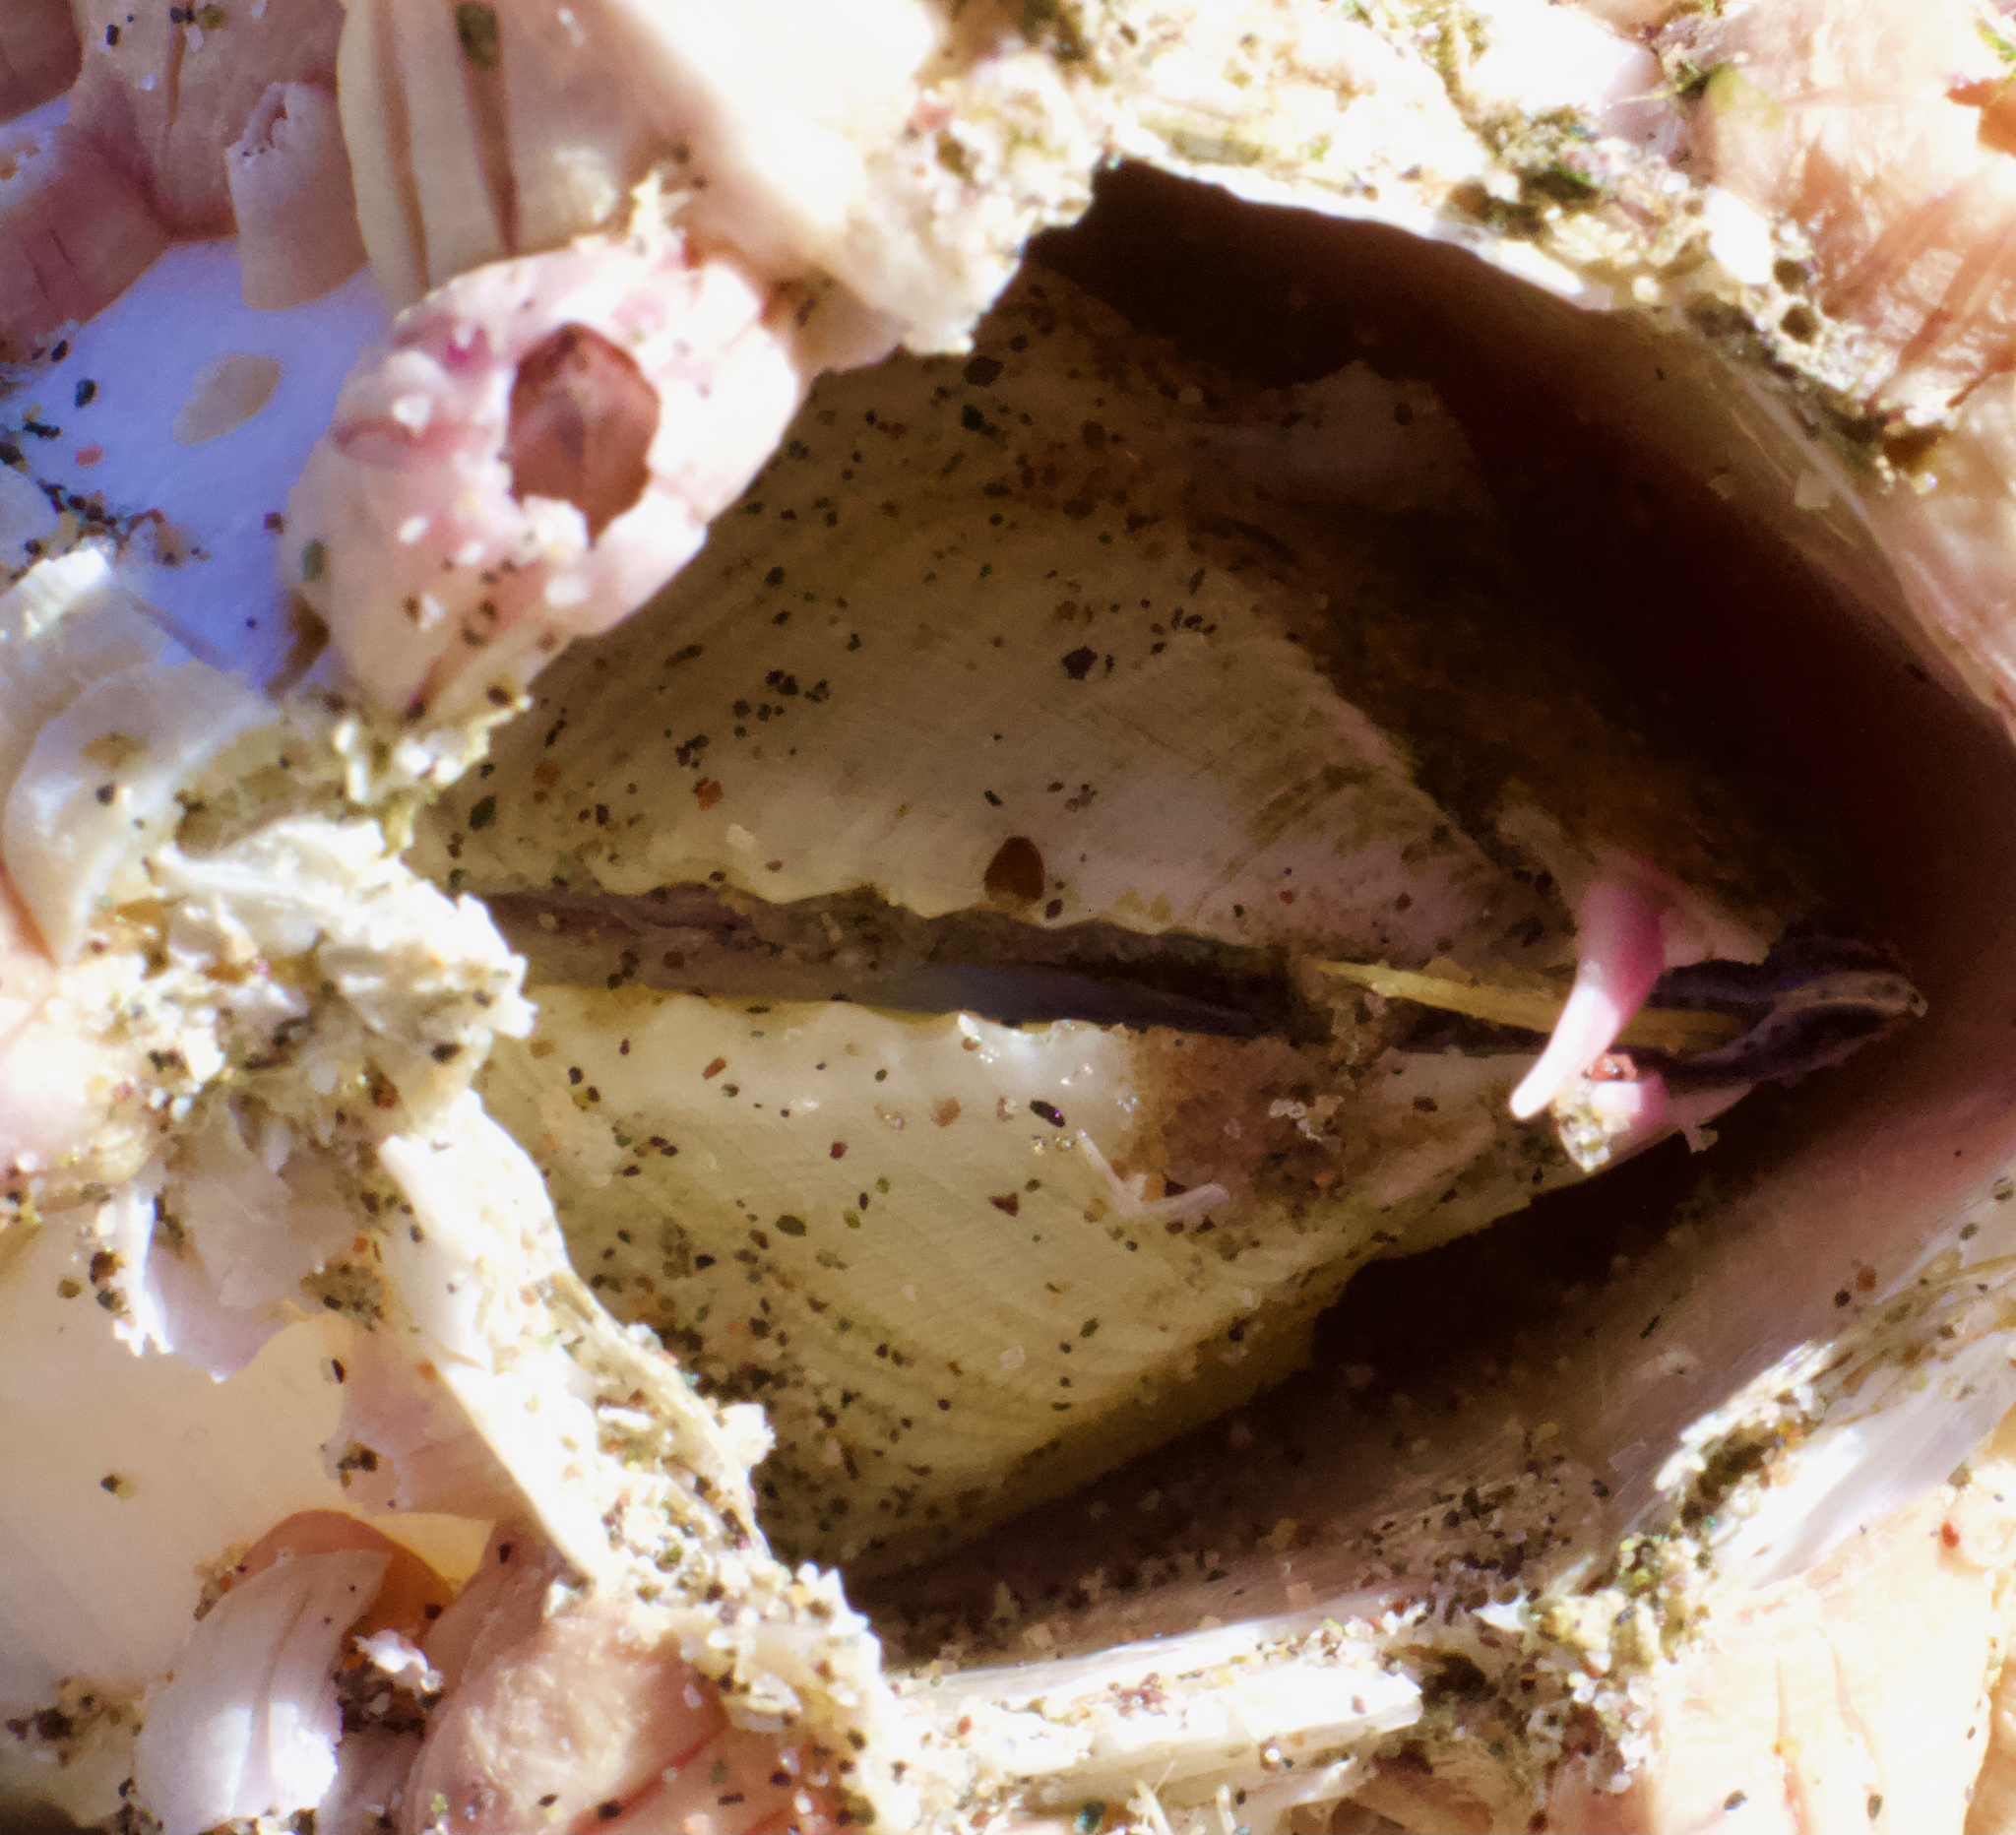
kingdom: Animalia
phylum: Arthropoda
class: Maxillopoda
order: Sessilia
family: Balanidae
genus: Austromegabalanus
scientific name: Austromegabalanus psittacus
